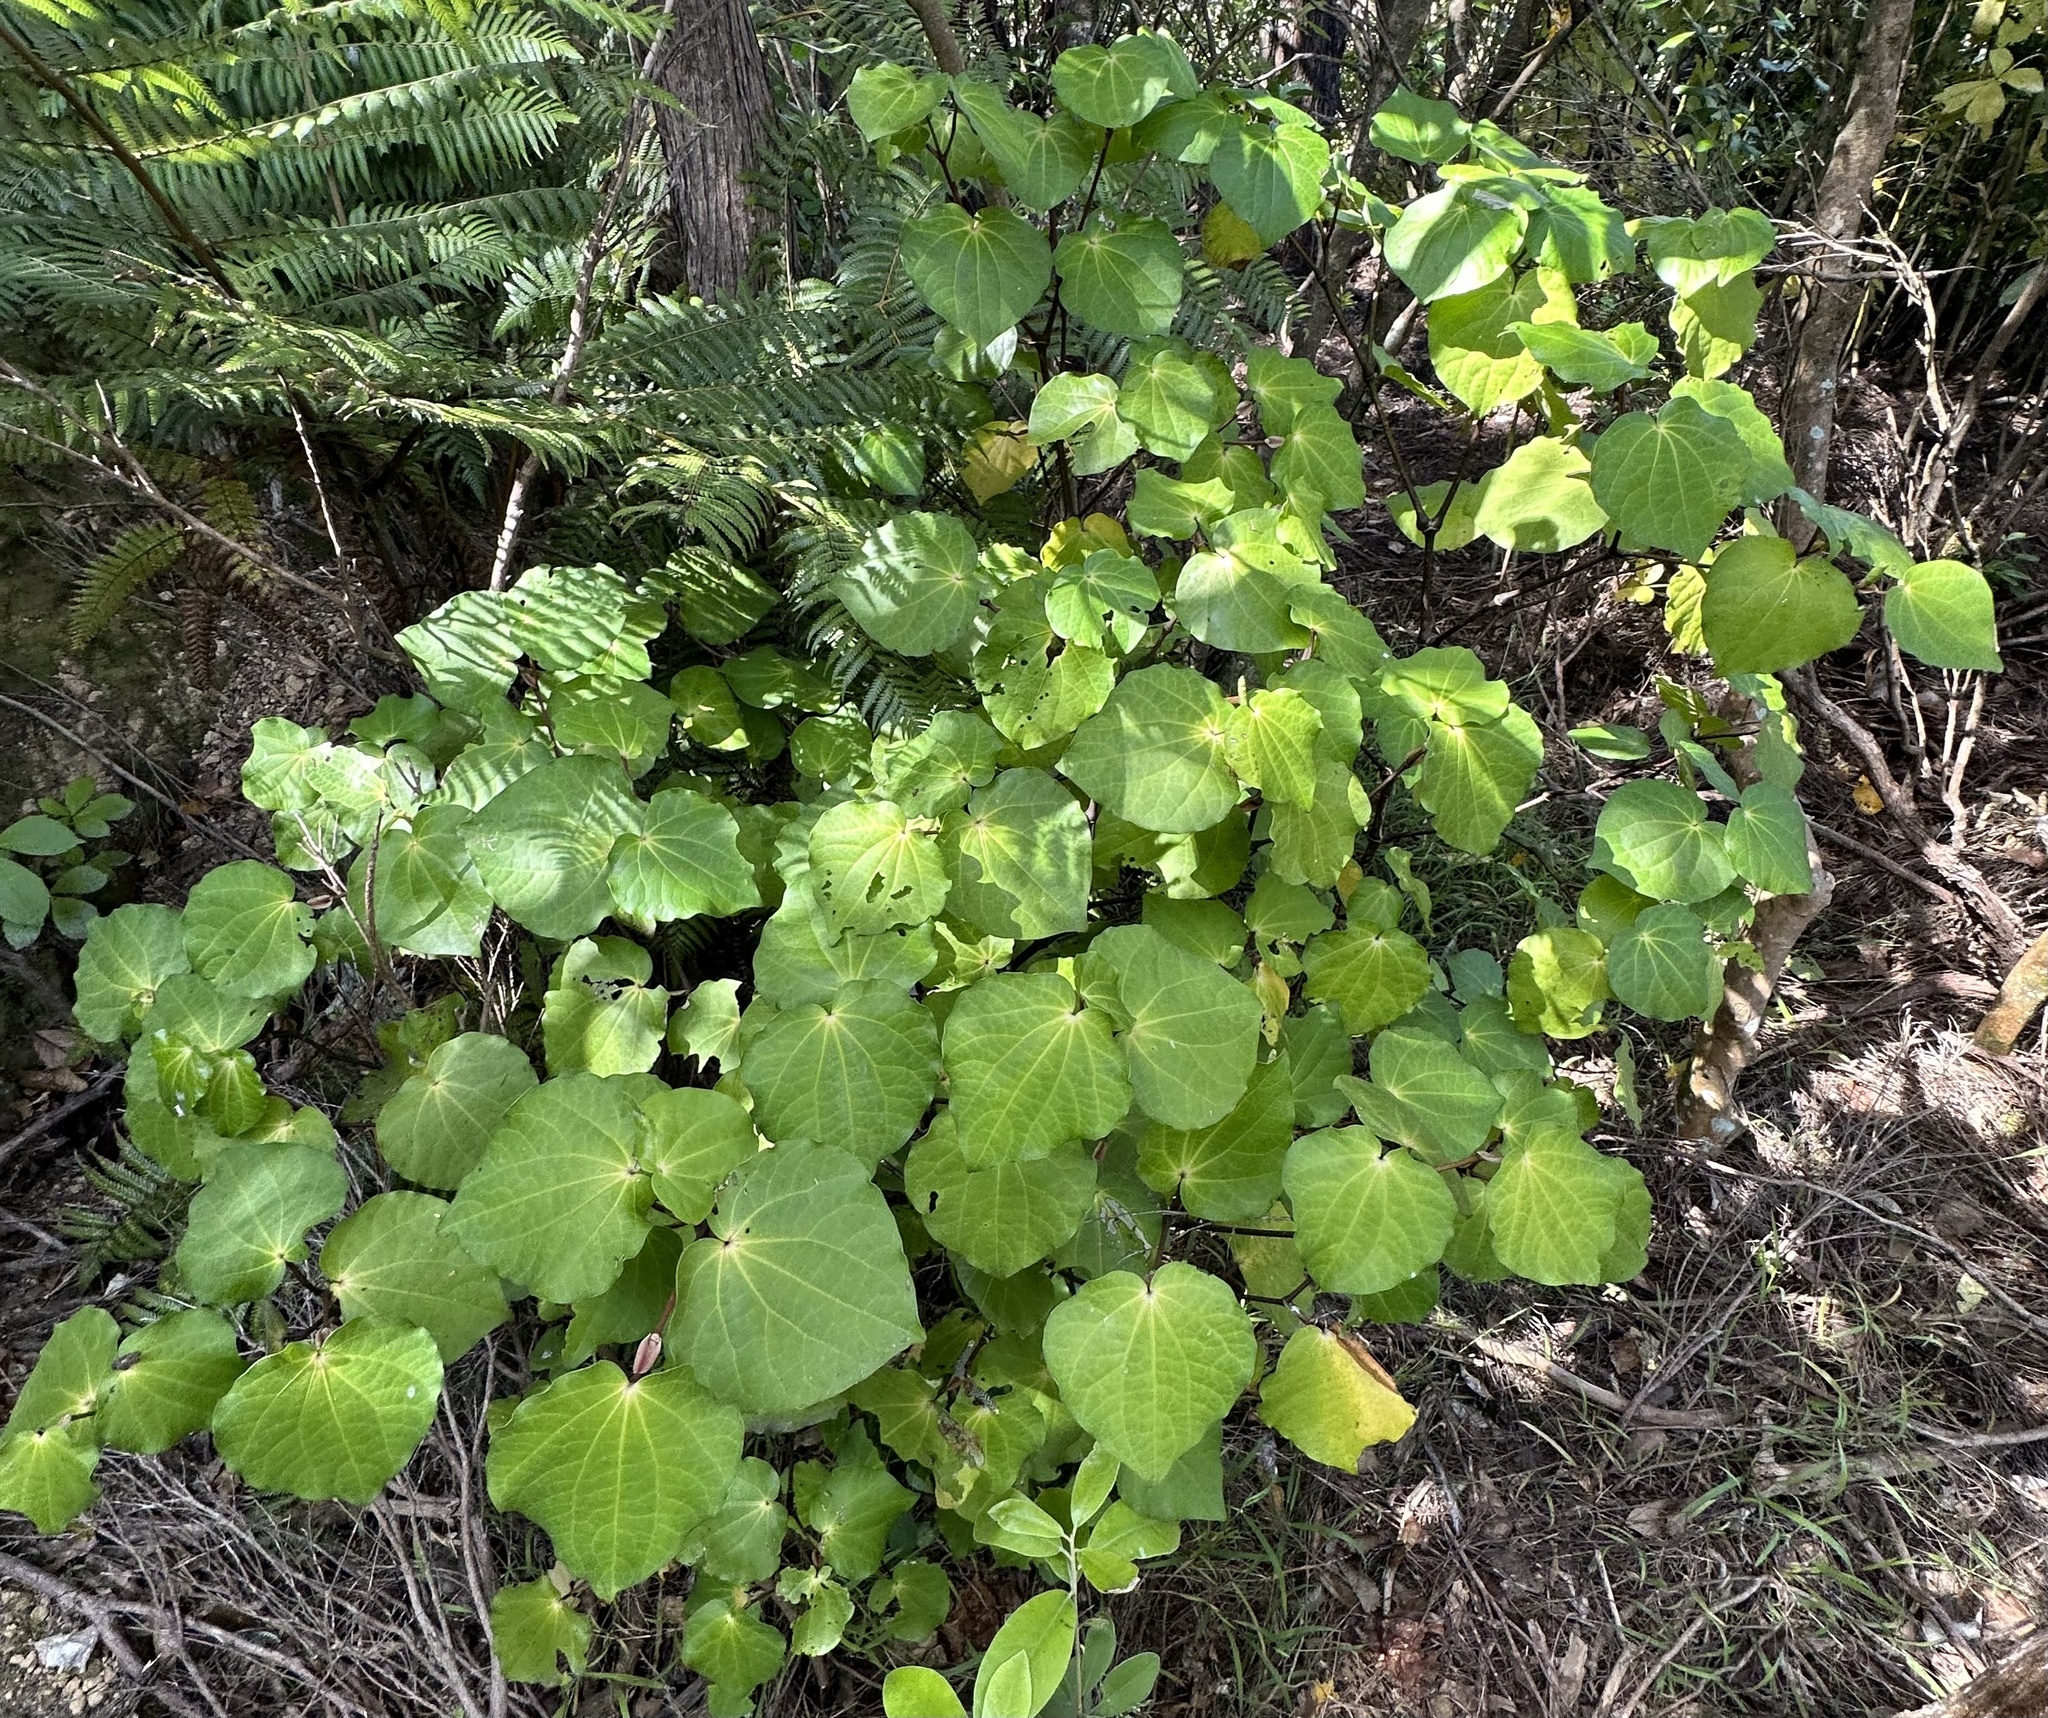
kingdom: Plantae
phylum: Tracheophyta
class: Magnoliopsida
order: Piperales
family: Piperaceae
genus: Macropiper
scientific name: Macropiper excelsum
